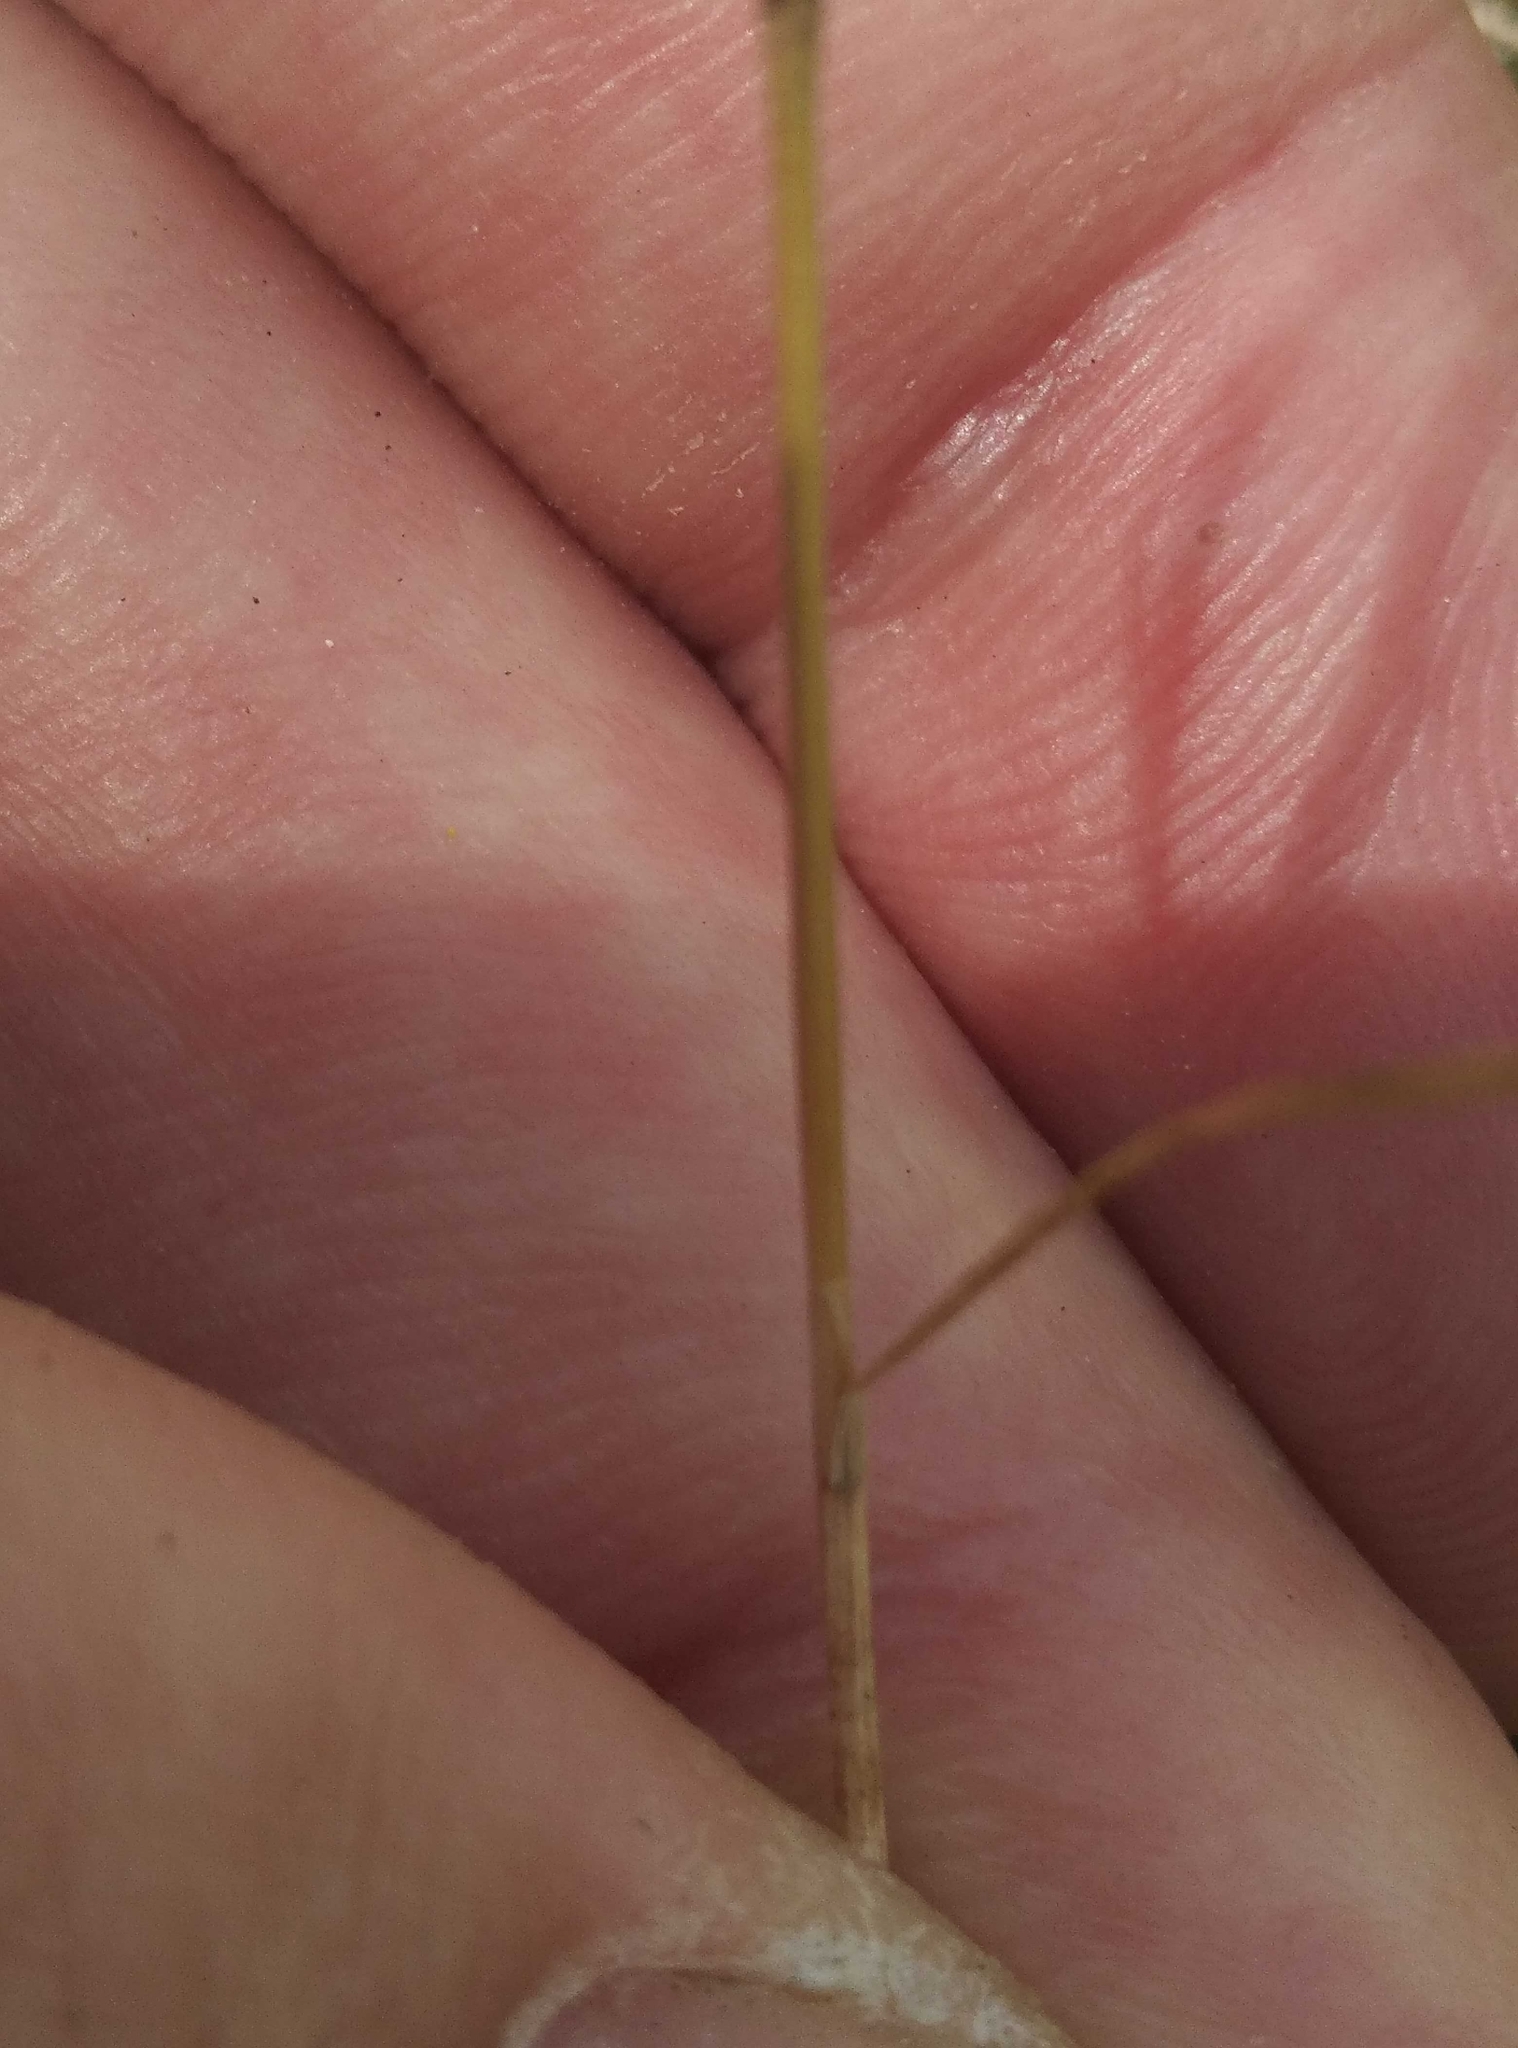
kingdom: Plantae
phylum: Tracheophyta
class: Liliopsida
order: Poales
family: Poaceae
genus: Aira
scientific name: Aira caryophyllea
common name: Silver hairgrass
